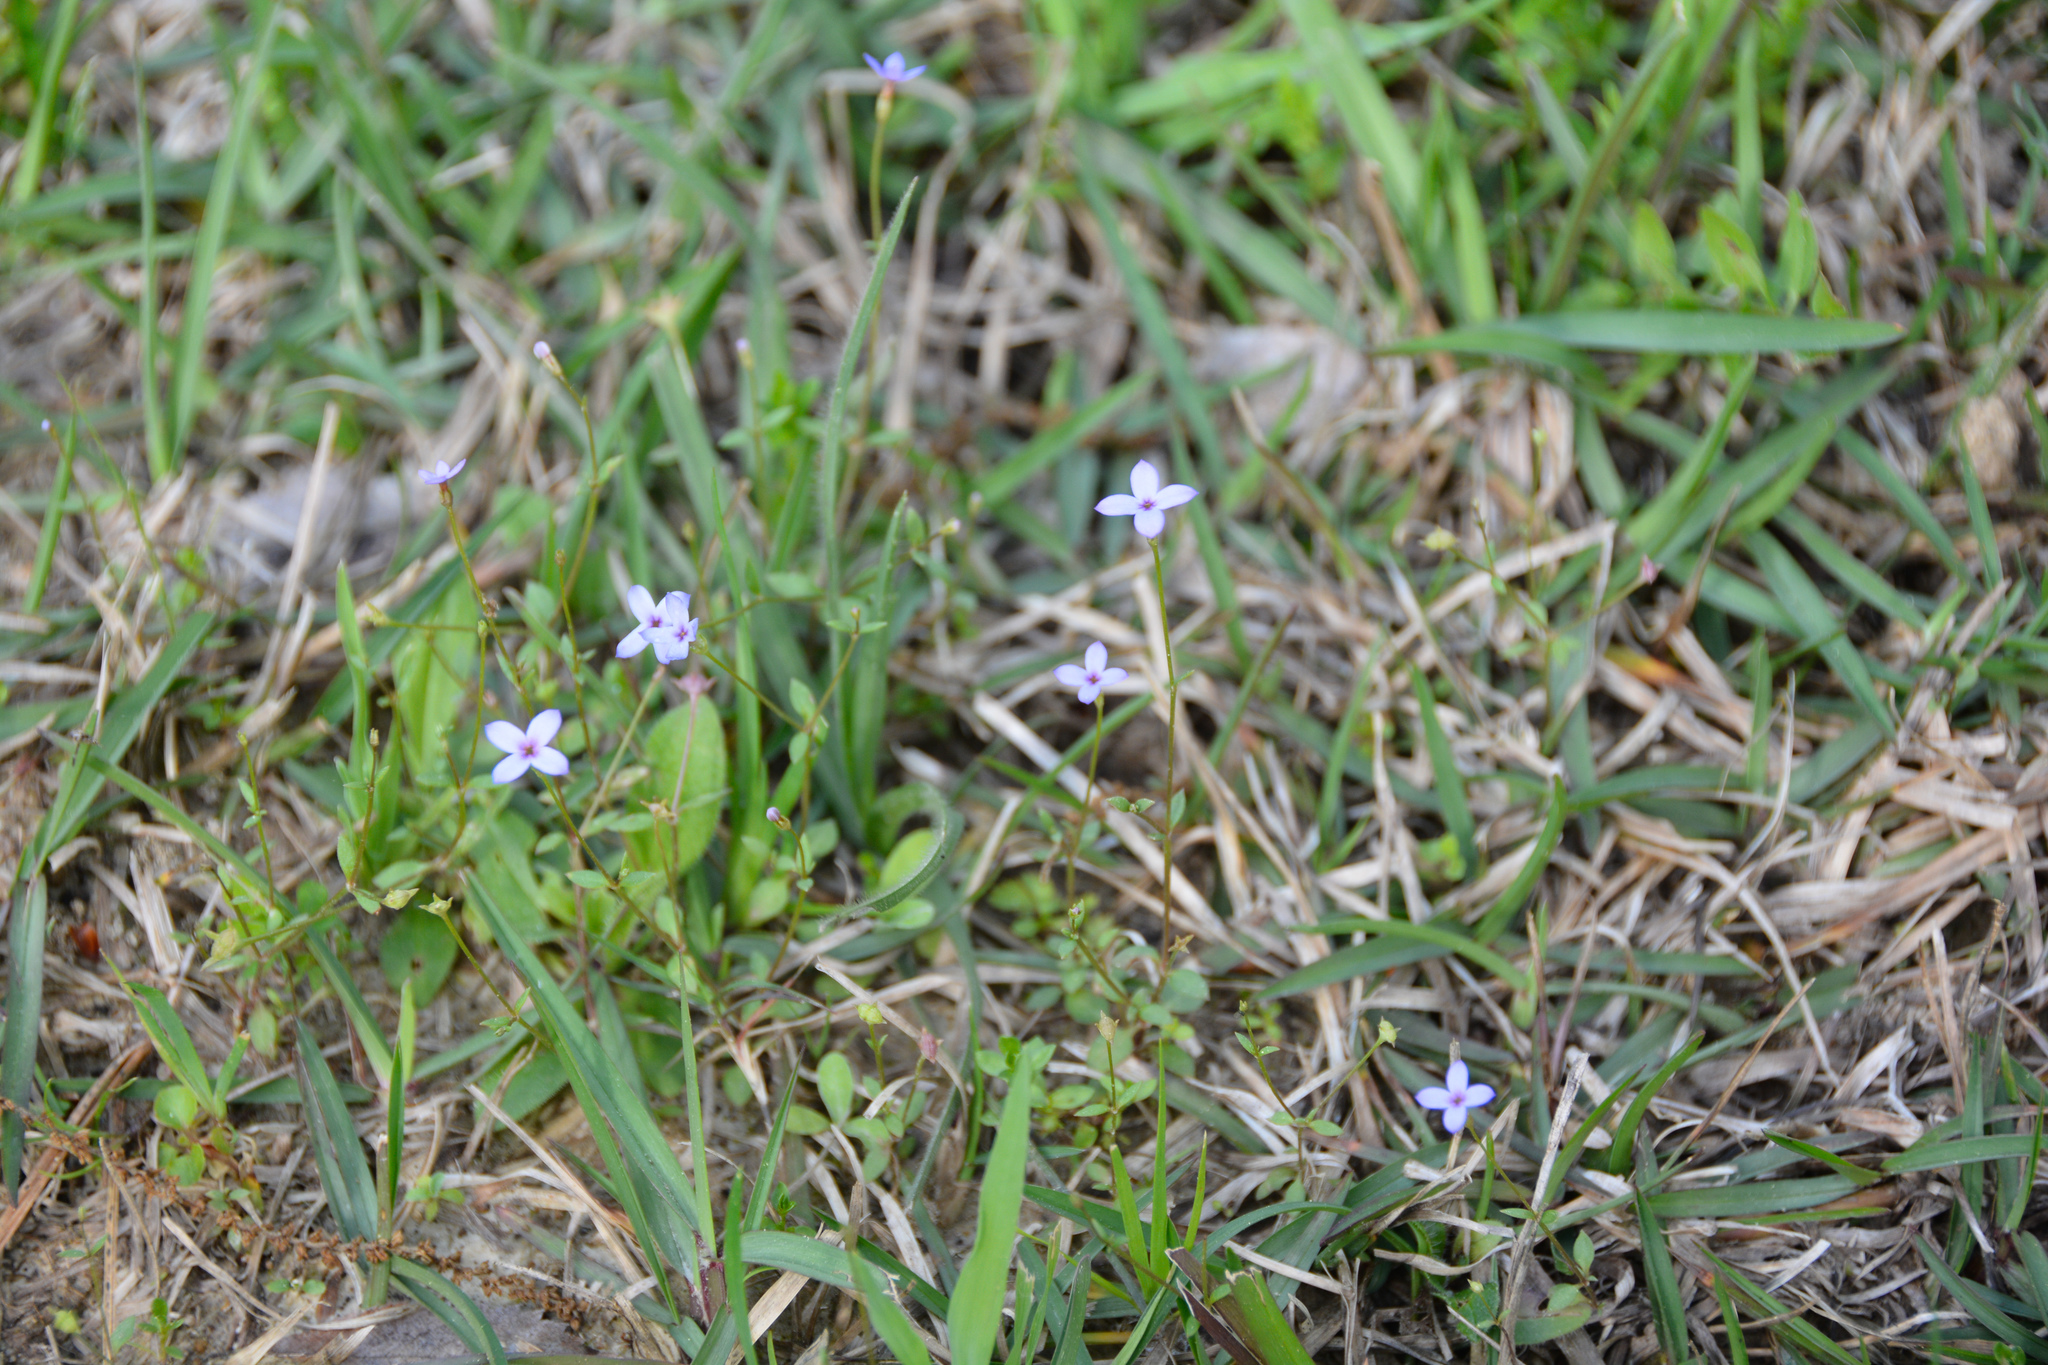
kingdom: Plantae
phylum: Tracheophyta
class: Magnoliopsida
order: Gentianales
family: Rubiaceae
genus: Houstonia
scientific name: Houstonia pusilla
